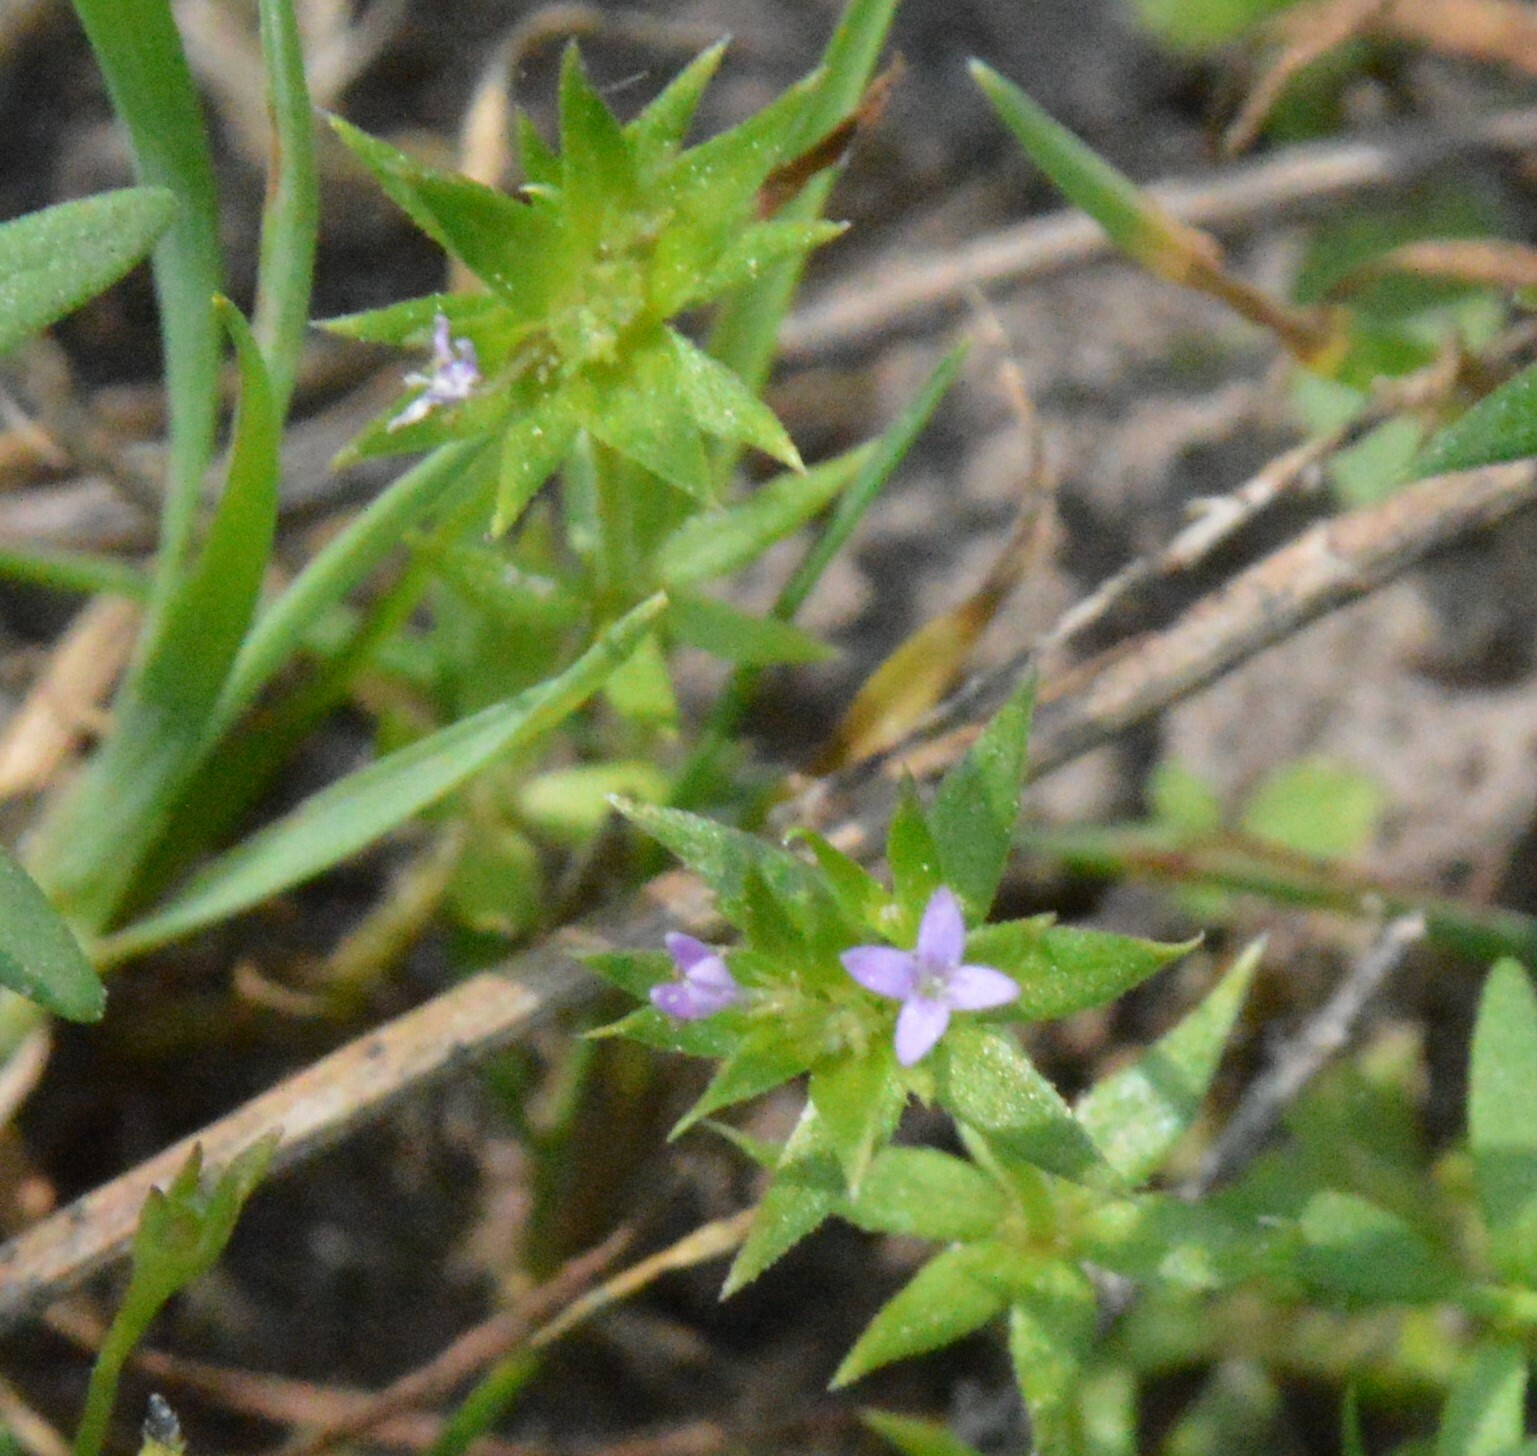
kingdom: Plantae
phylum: Tracheophyta
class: Magnoliopsida
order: Gentianales
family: Rubiaceae
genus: Sherardia
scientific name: Sherardia arvensis
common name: Field madder
